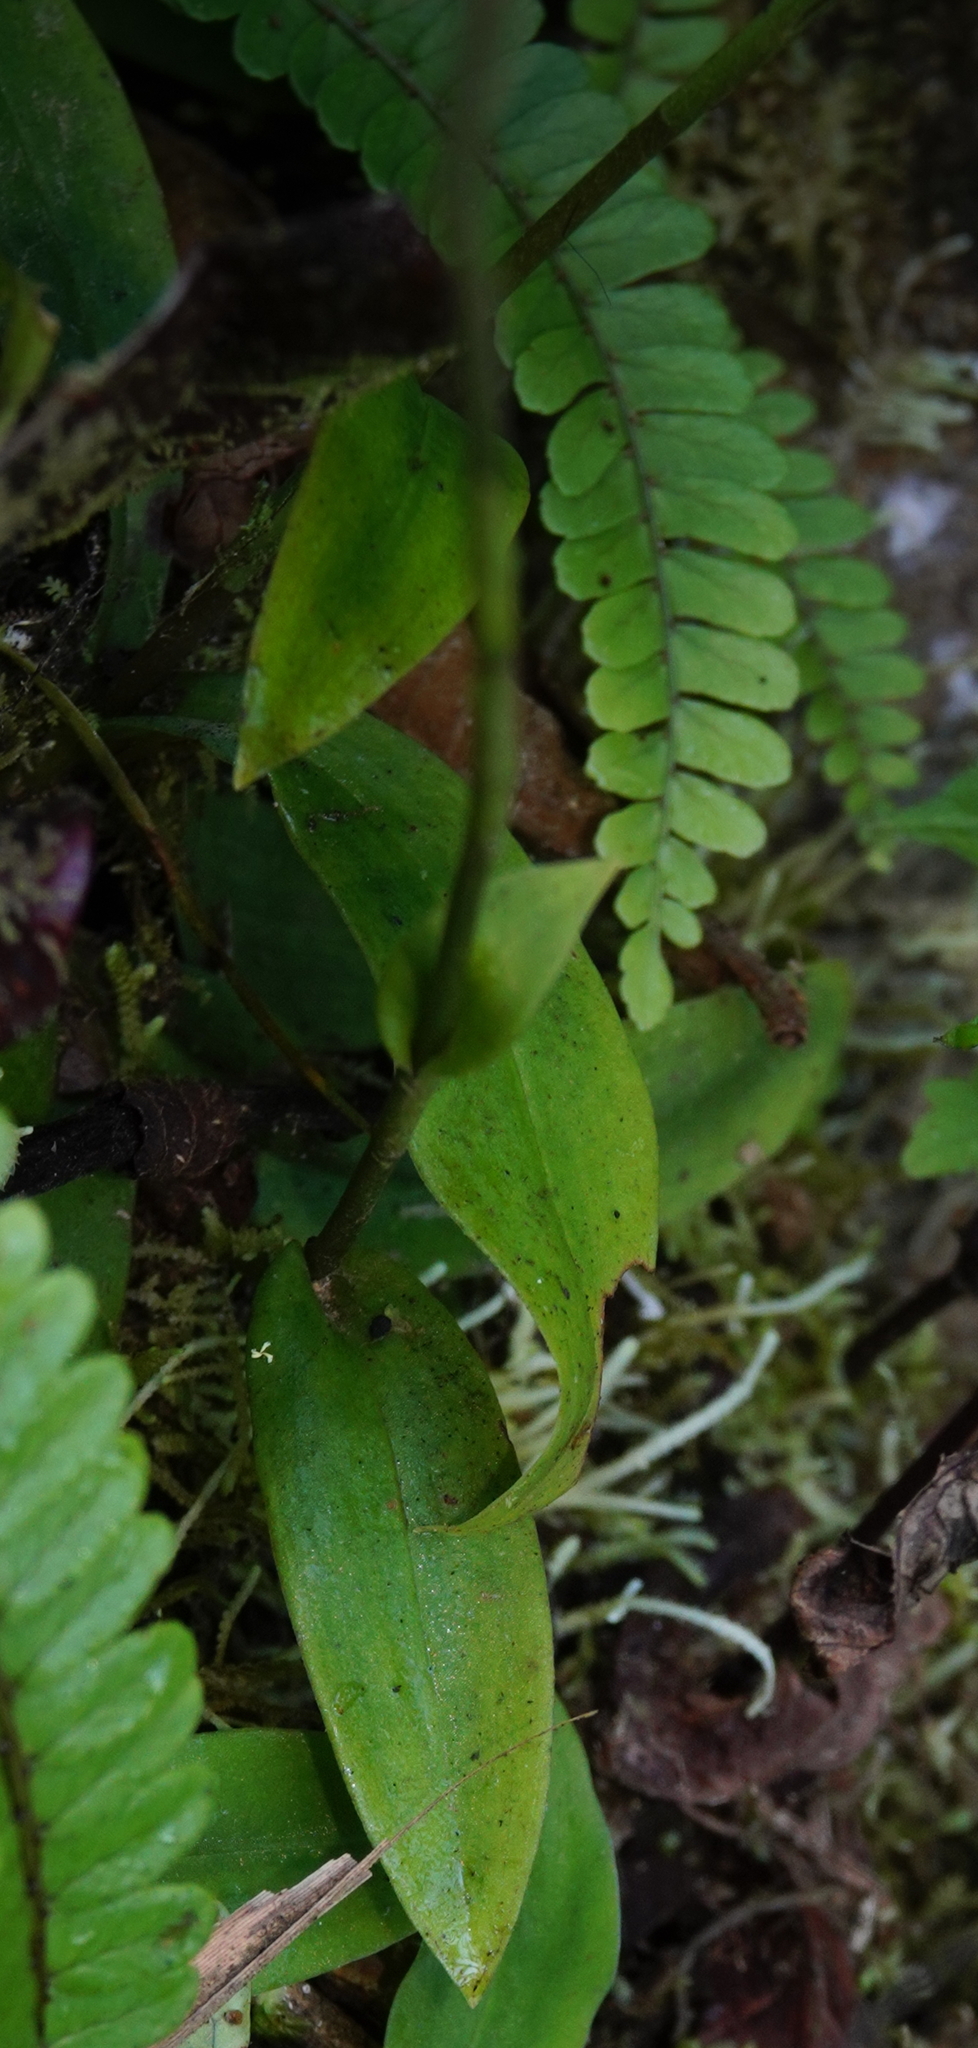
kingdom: Plantae
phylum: Tracheophyta
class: Liliopsida
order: Asparagales
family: Orchidaceae
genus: Ponthieva
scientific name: Ponthieva fertilis
